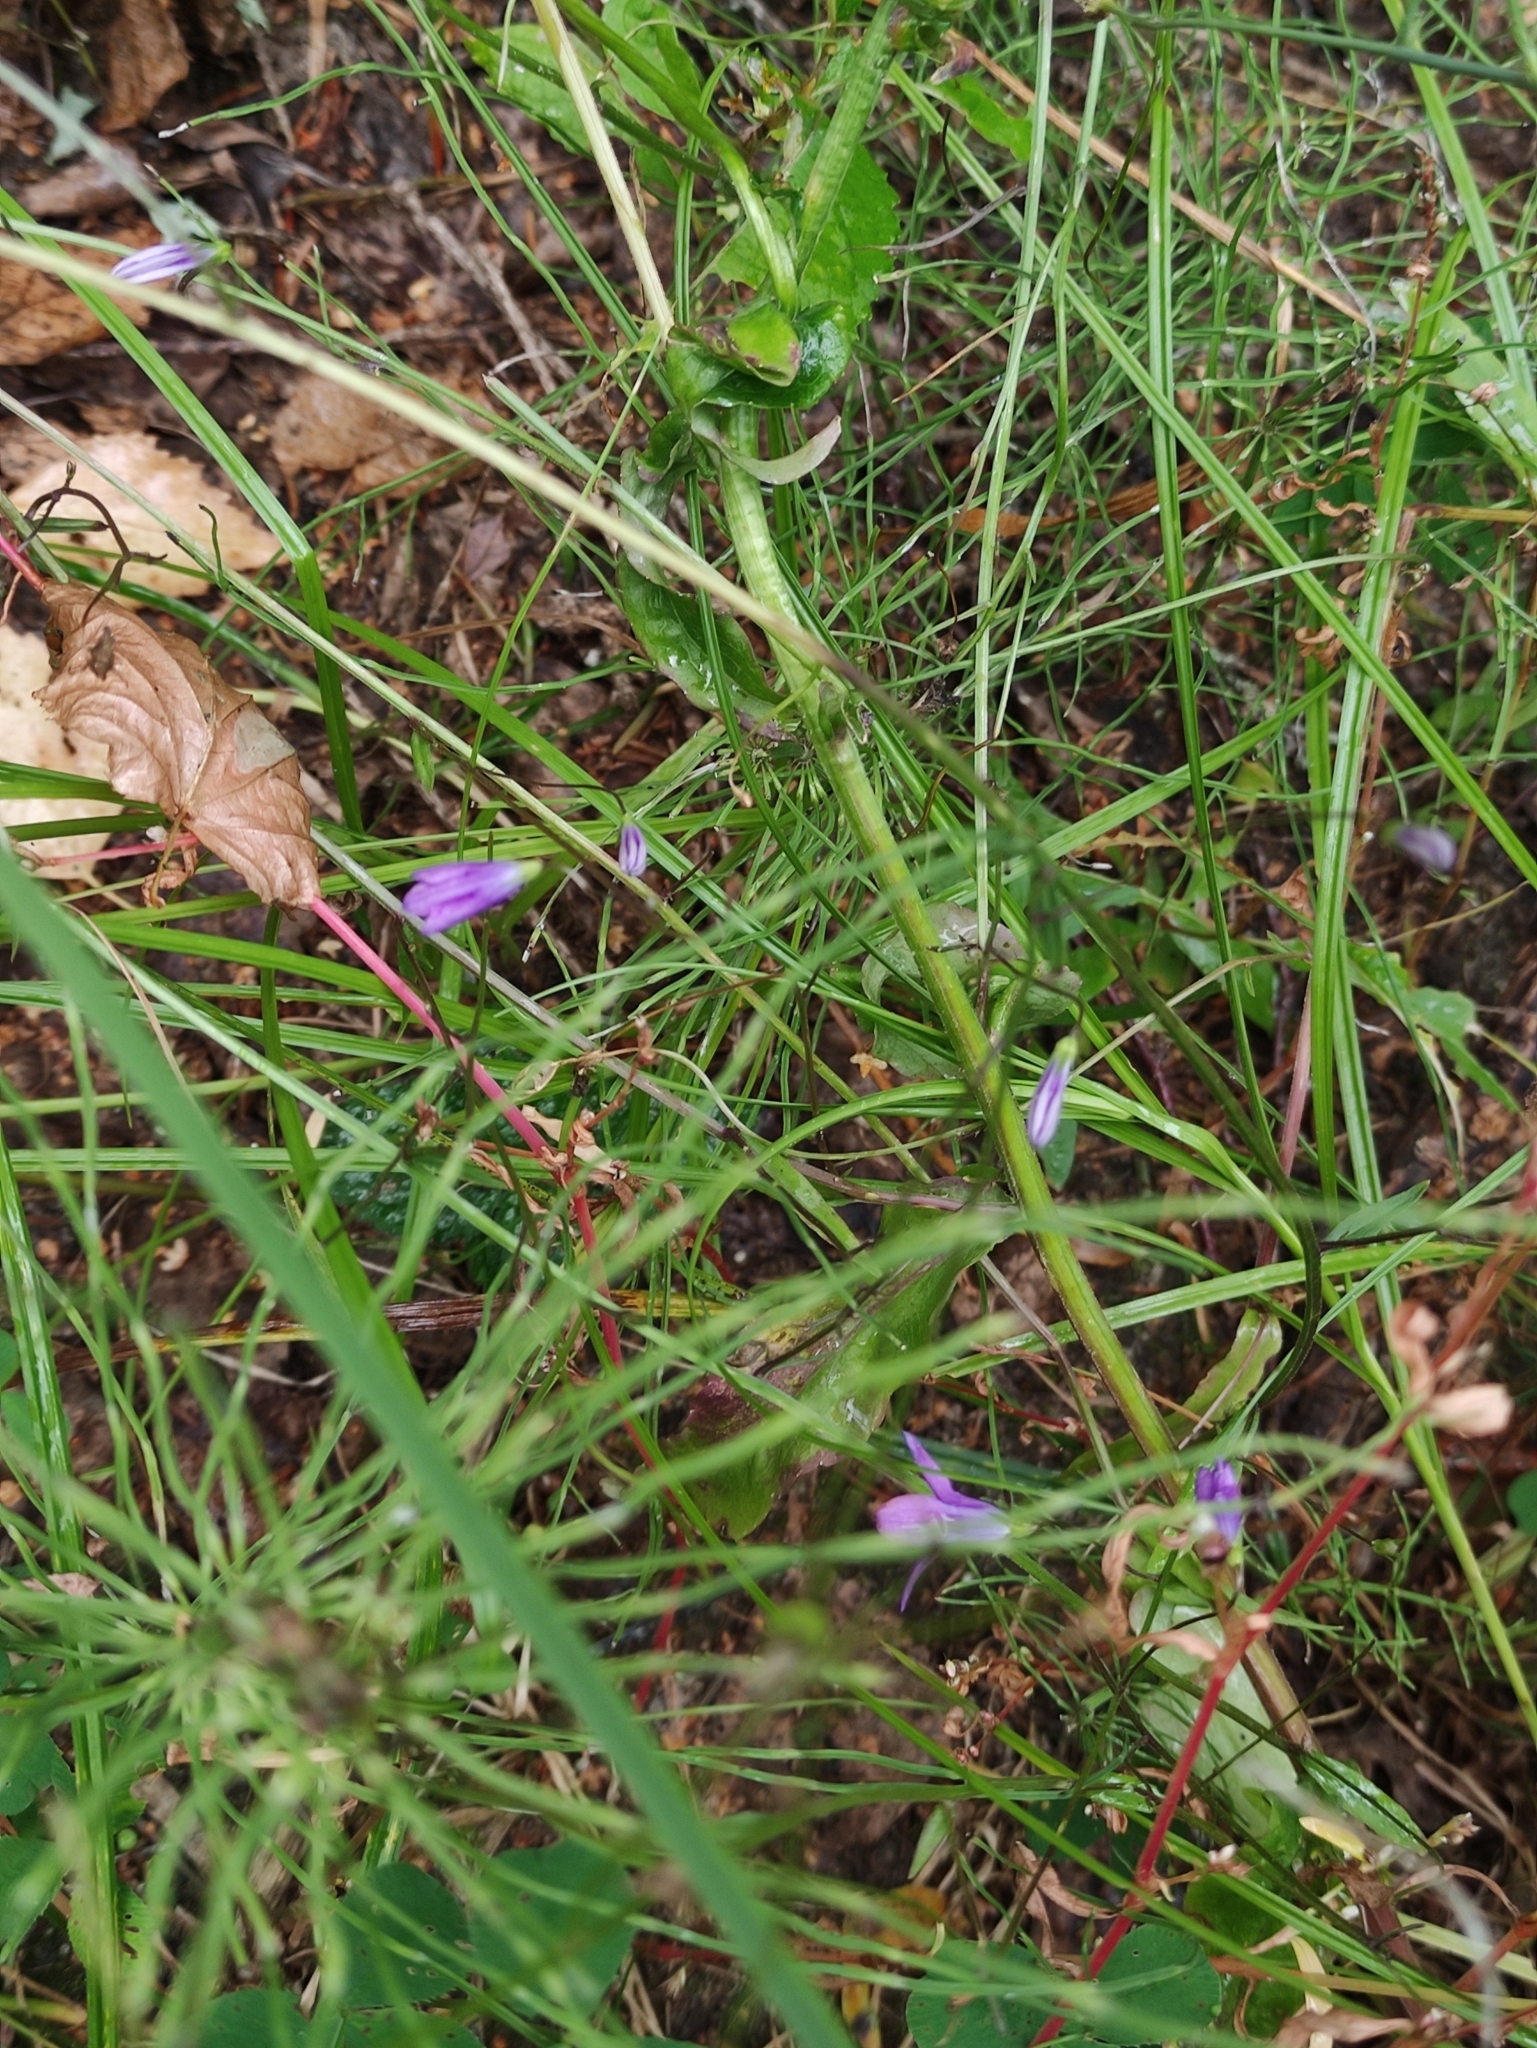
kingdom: Plantae
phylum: Tracheophyta
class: Magnoliopsida
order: Asterales
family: Campanulaceae
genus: Campanula
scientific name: Campanula patula
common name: Spreading bellflower
